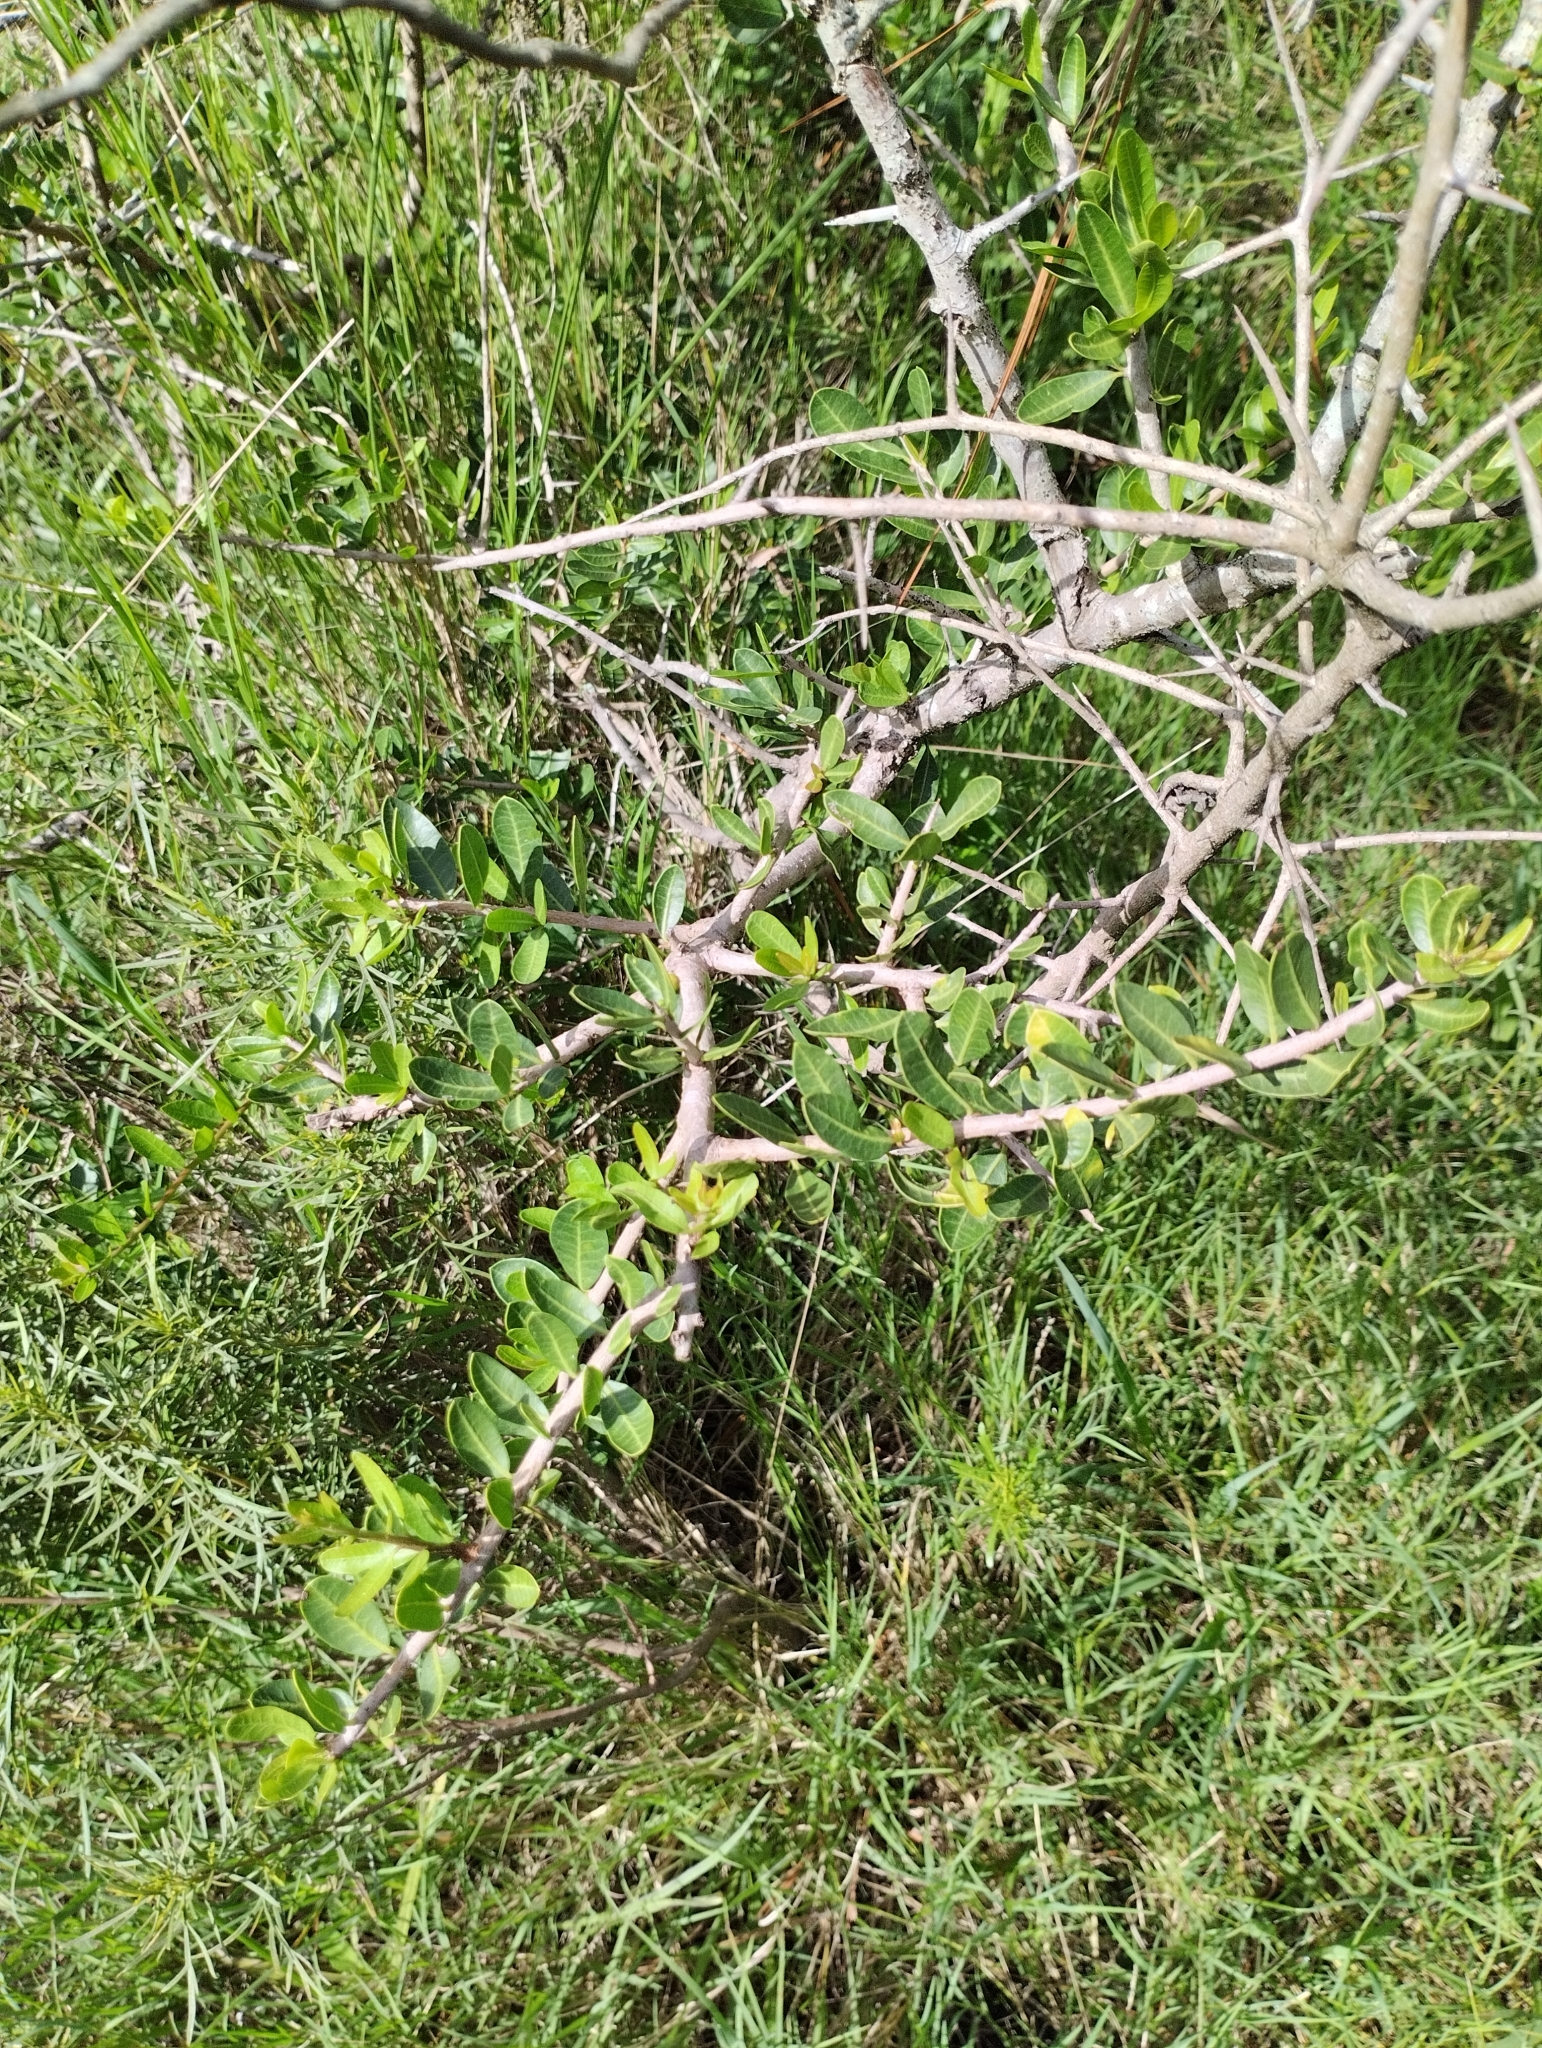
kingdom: Plantae
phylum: Tracheophyta
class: Magnoliopsida
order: Sapindales
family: Anacardiaceae
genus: Schinus
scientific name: Schinus engleri
